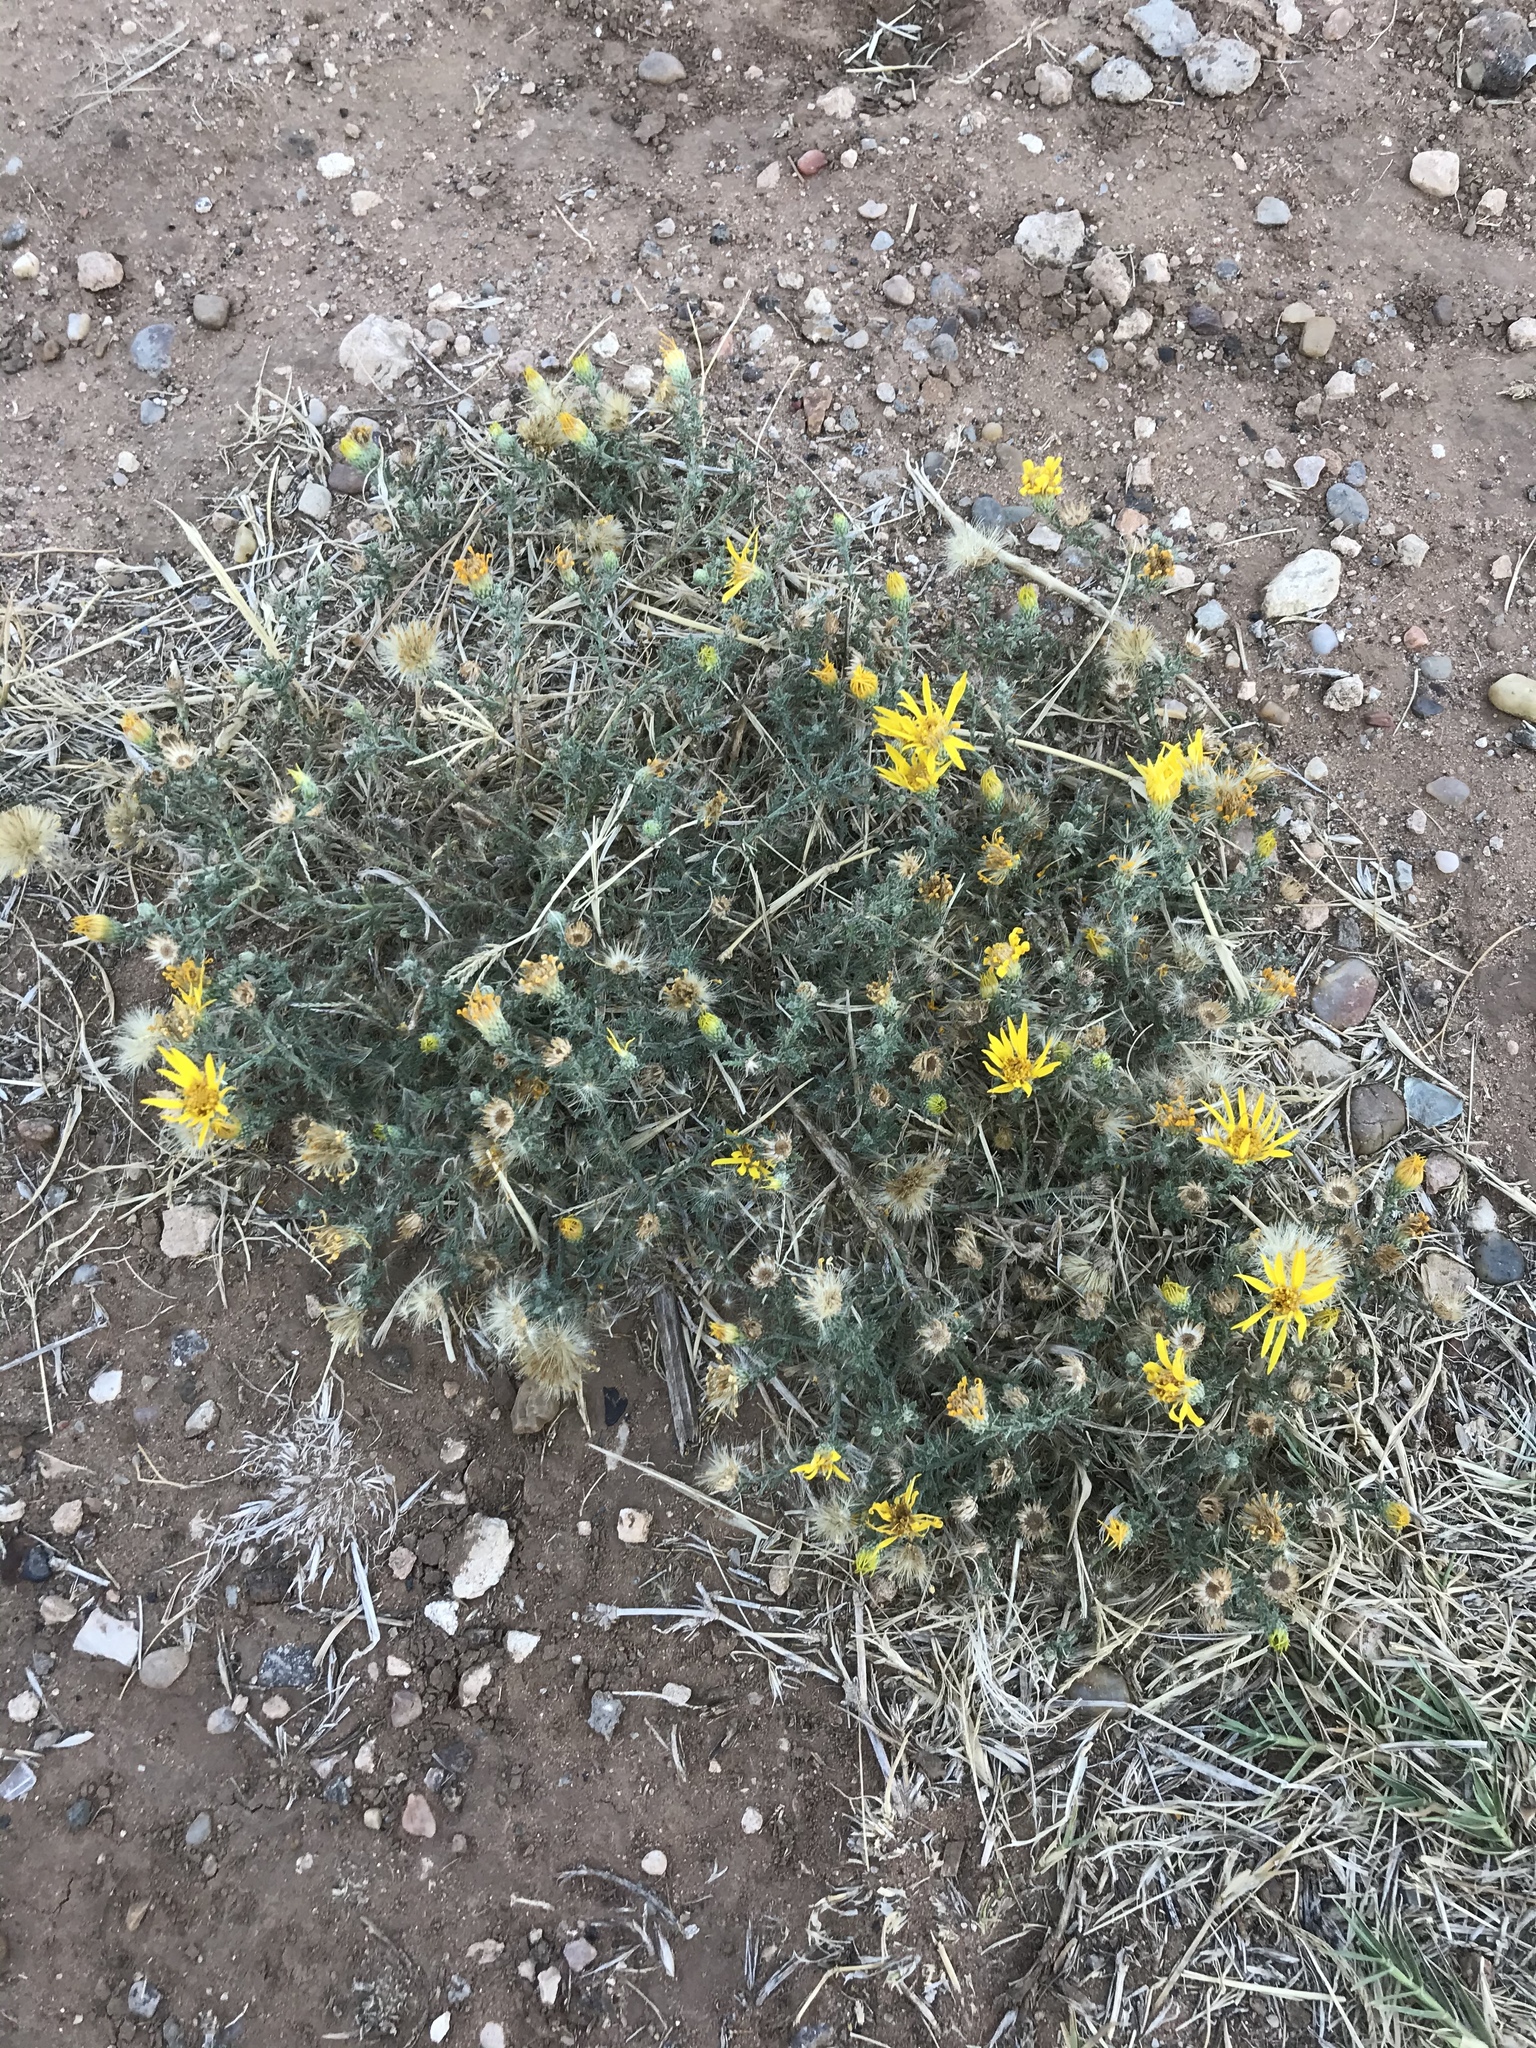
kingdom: Plantae
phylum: Tracheophyta
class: Magnoliopsida
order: Asterales
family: Asteraceae
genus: Xanthisma
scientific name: Xanthisma spinulosum
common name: Spiny goldenweed
